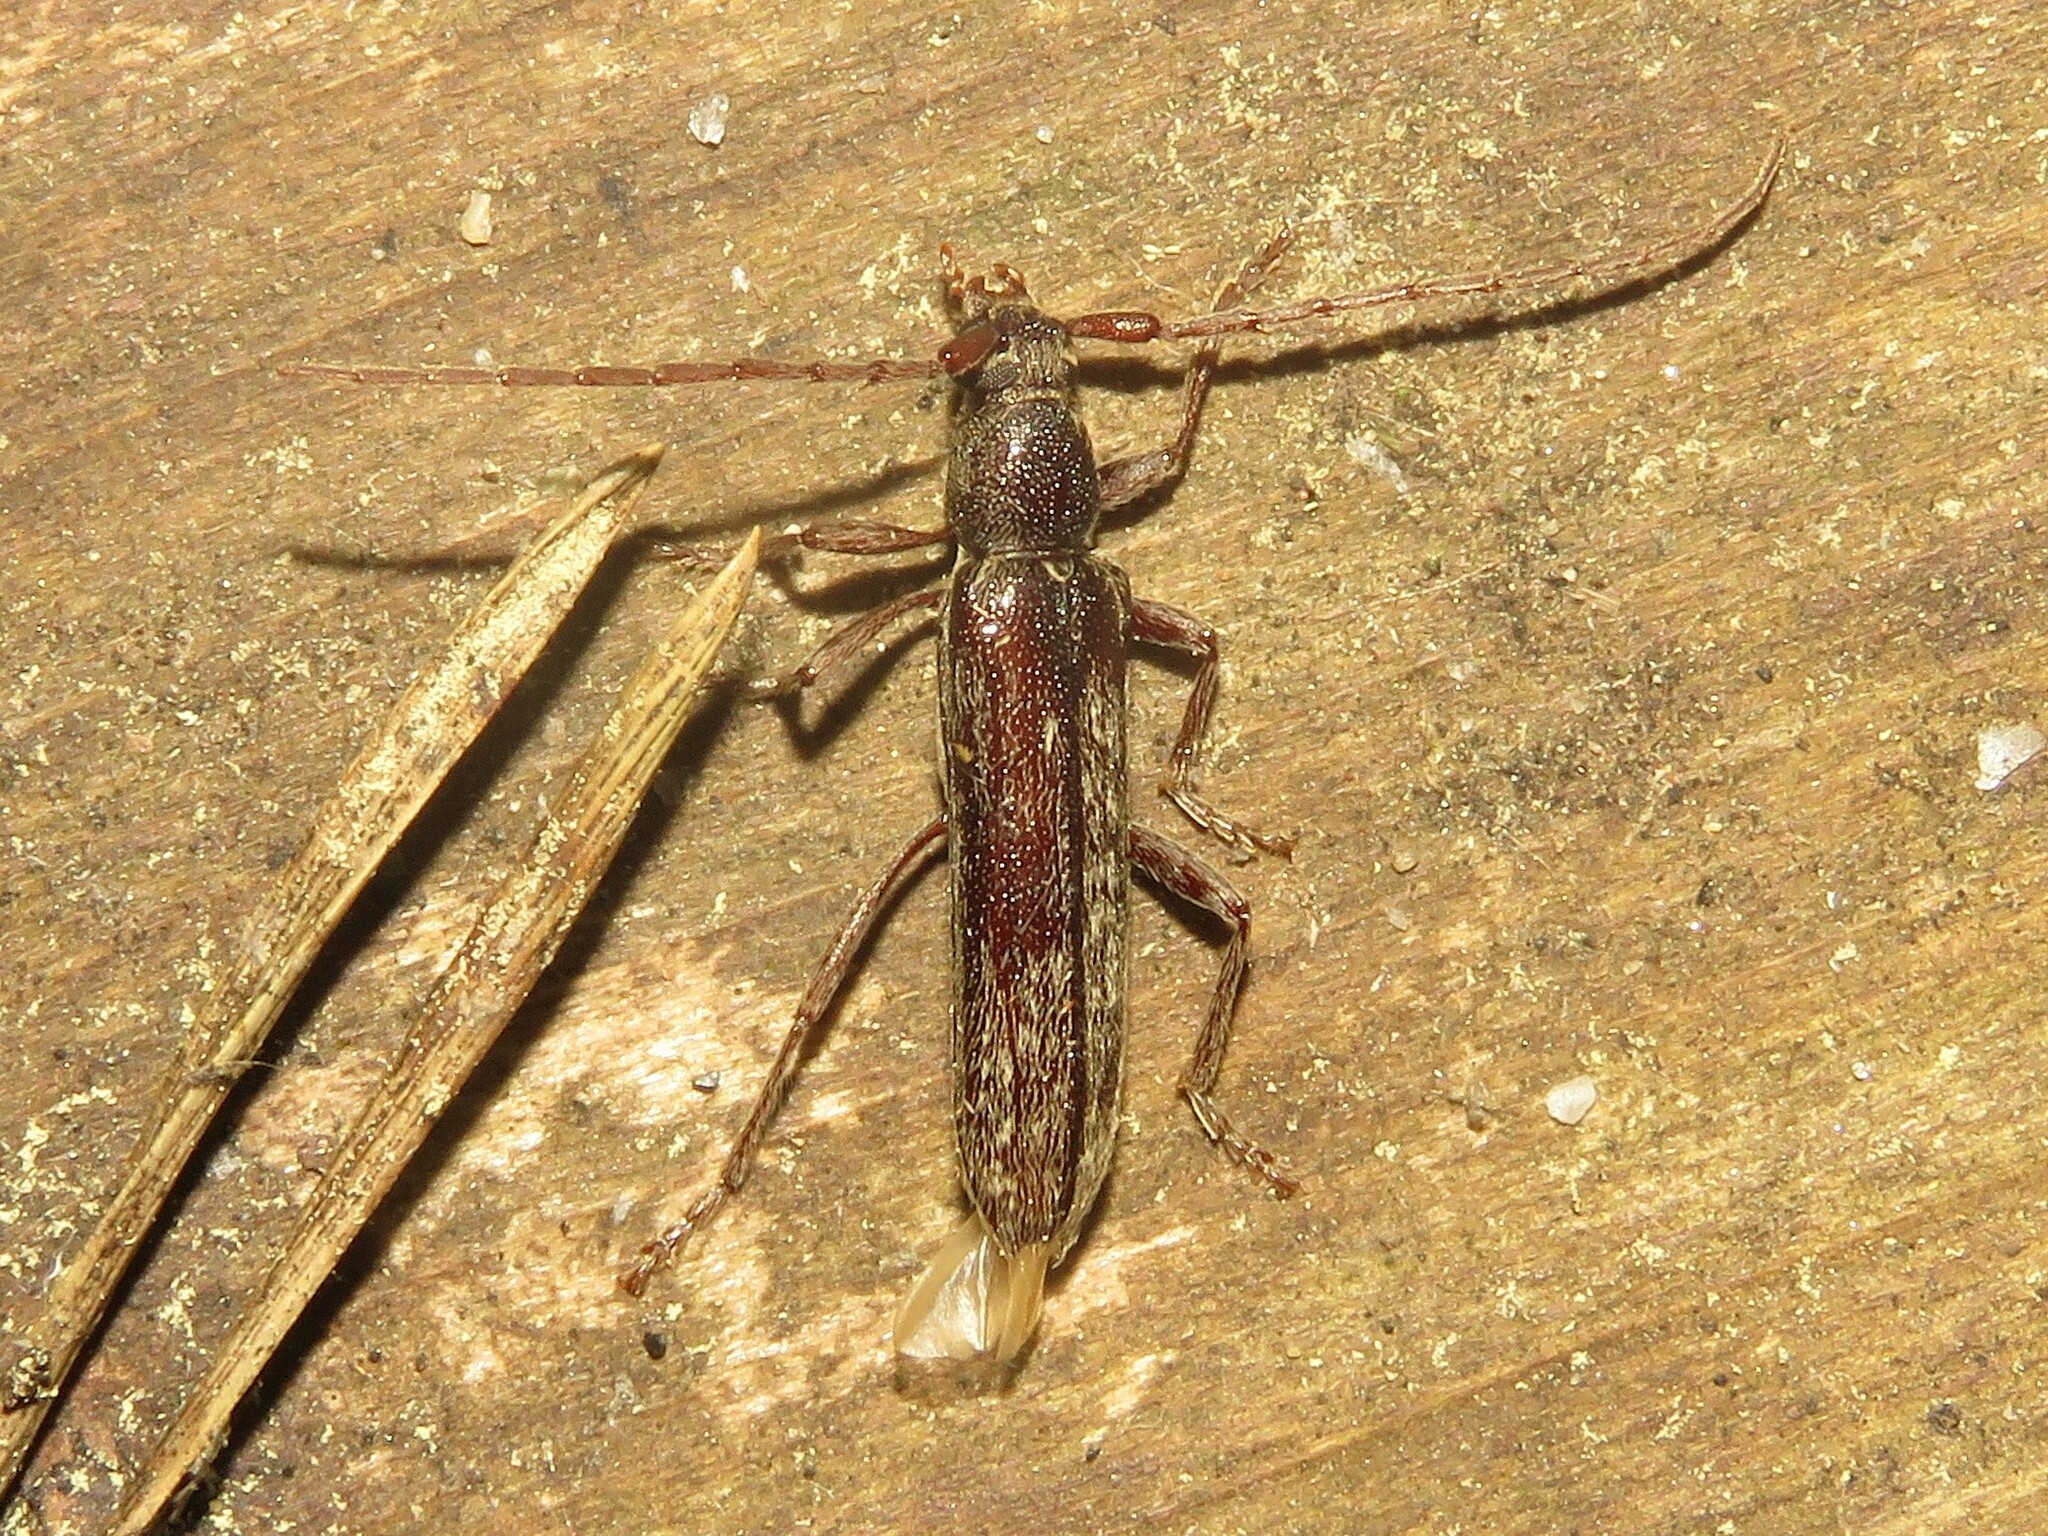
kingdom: Animalia
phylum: Arthropoda
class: Insecta
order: Coleoptera
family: Cerambycidae
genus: Anelaphus
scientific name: Anelaphus villosus
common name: Twig pruner
